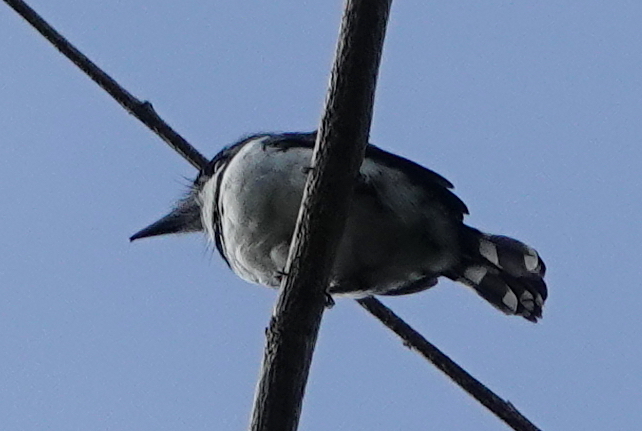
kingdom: Animalia
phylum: Chordata
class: Aves
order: Piciformes
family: Bucconidae
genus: Notharchus
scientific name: Notharchus tectus
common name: Pied puffbird
